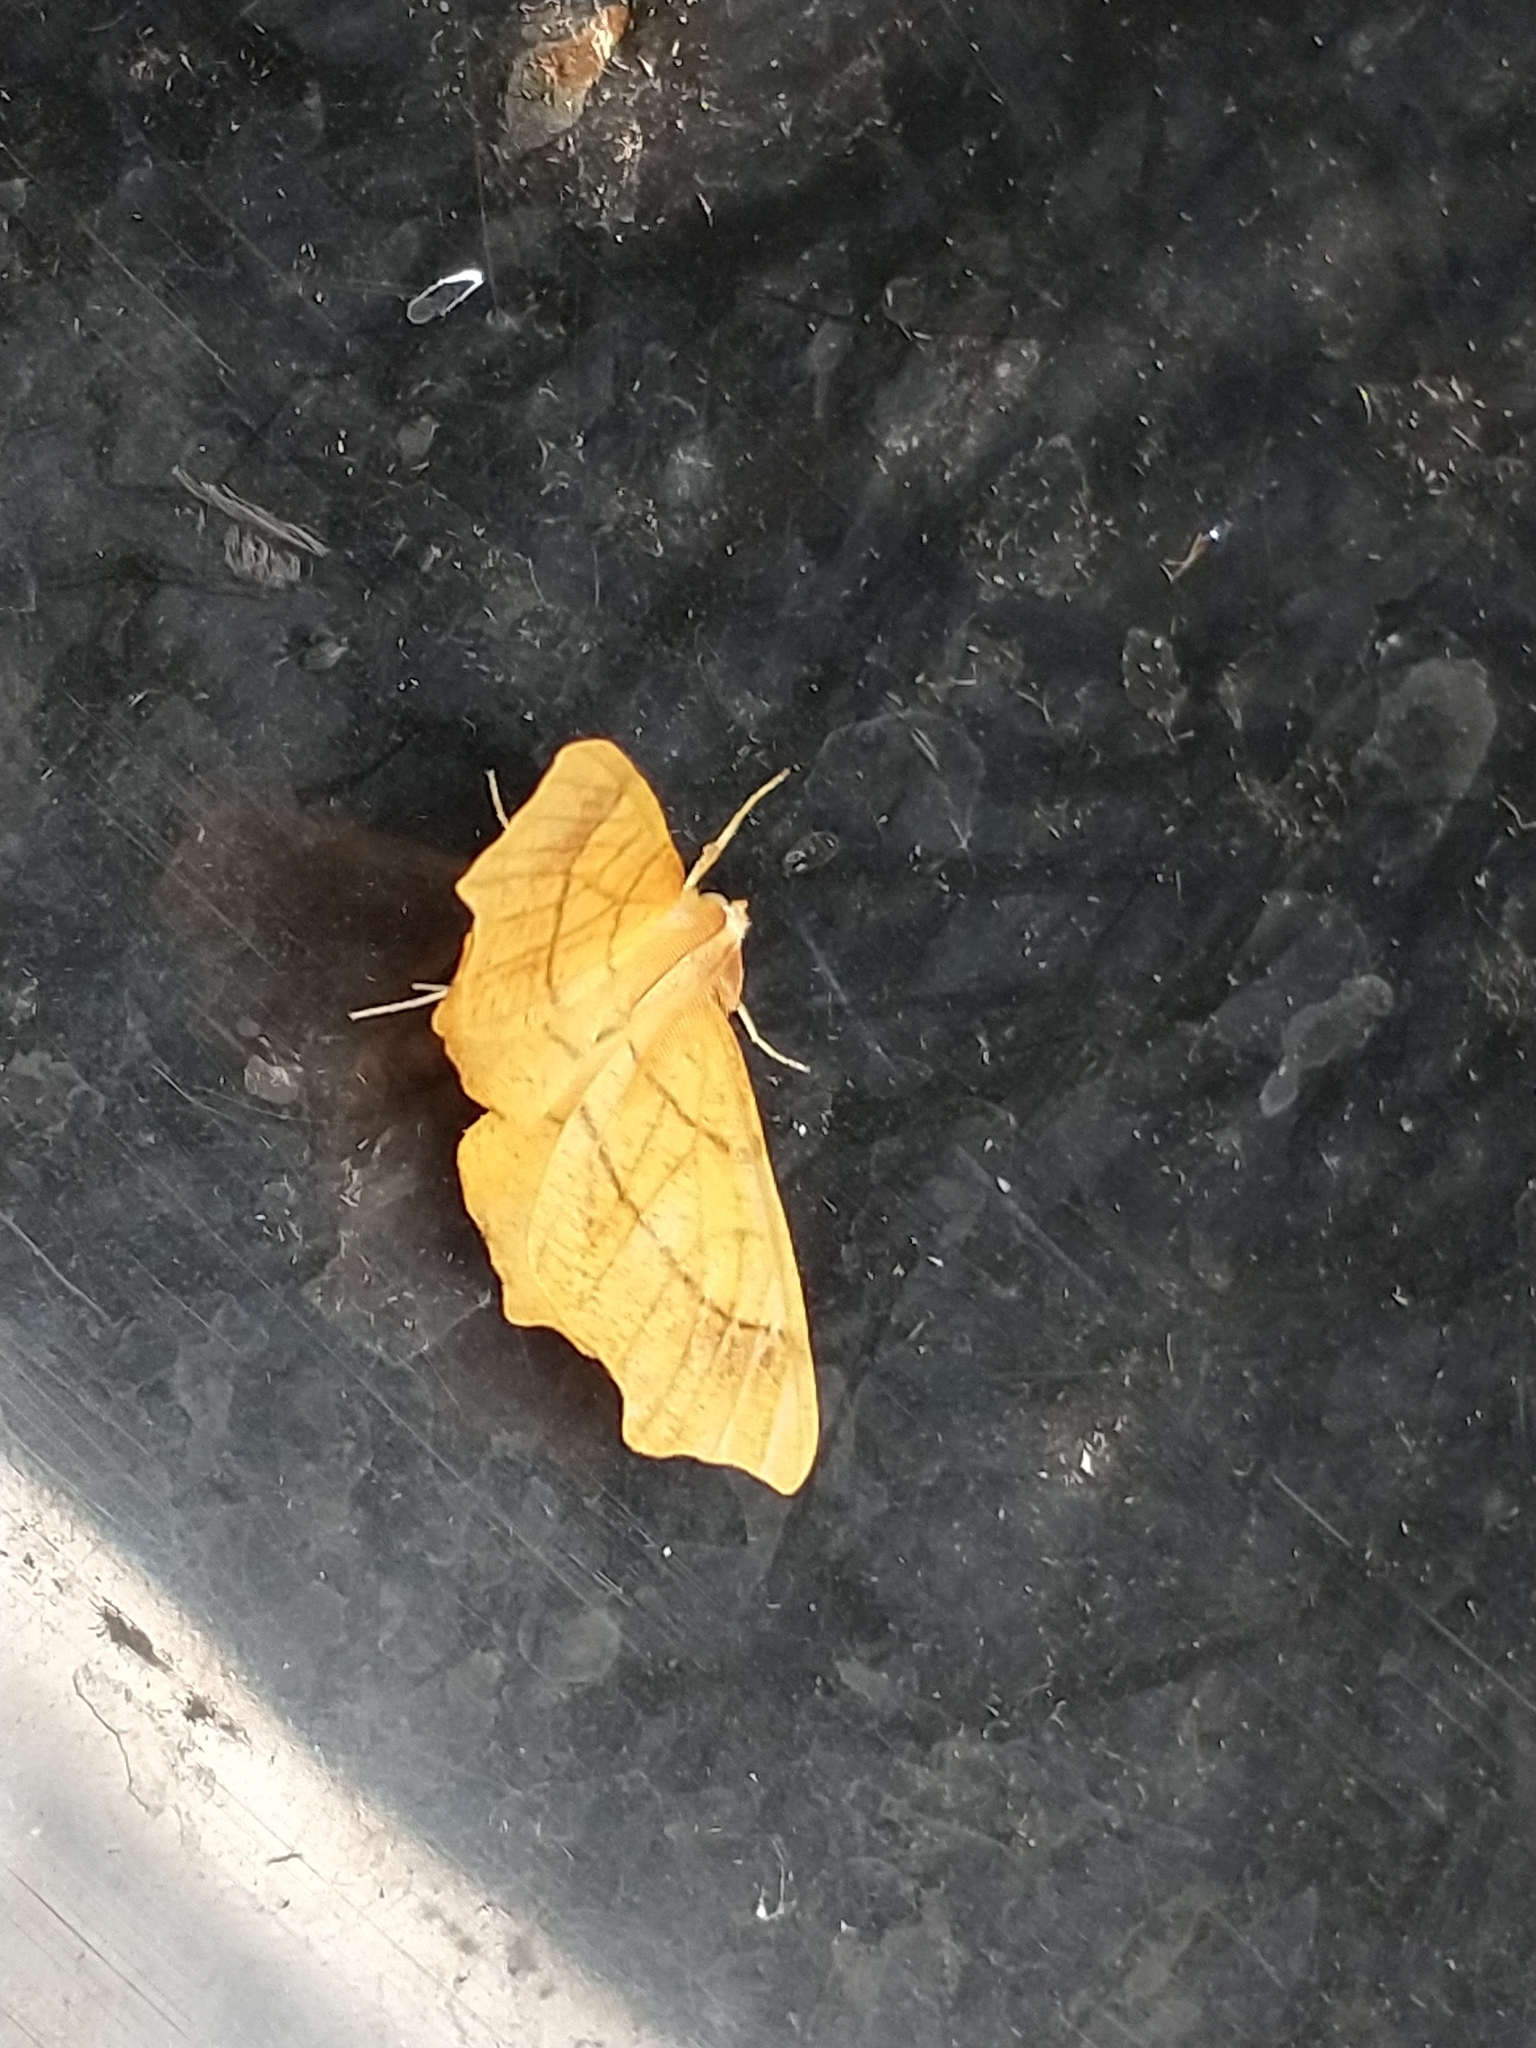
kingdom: Animalia
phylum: Arthropoda
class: Insecta
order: Lepidoptera
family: Geometridae
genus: Ennomos
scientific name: Ennomos quercinaria
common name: August thorn
